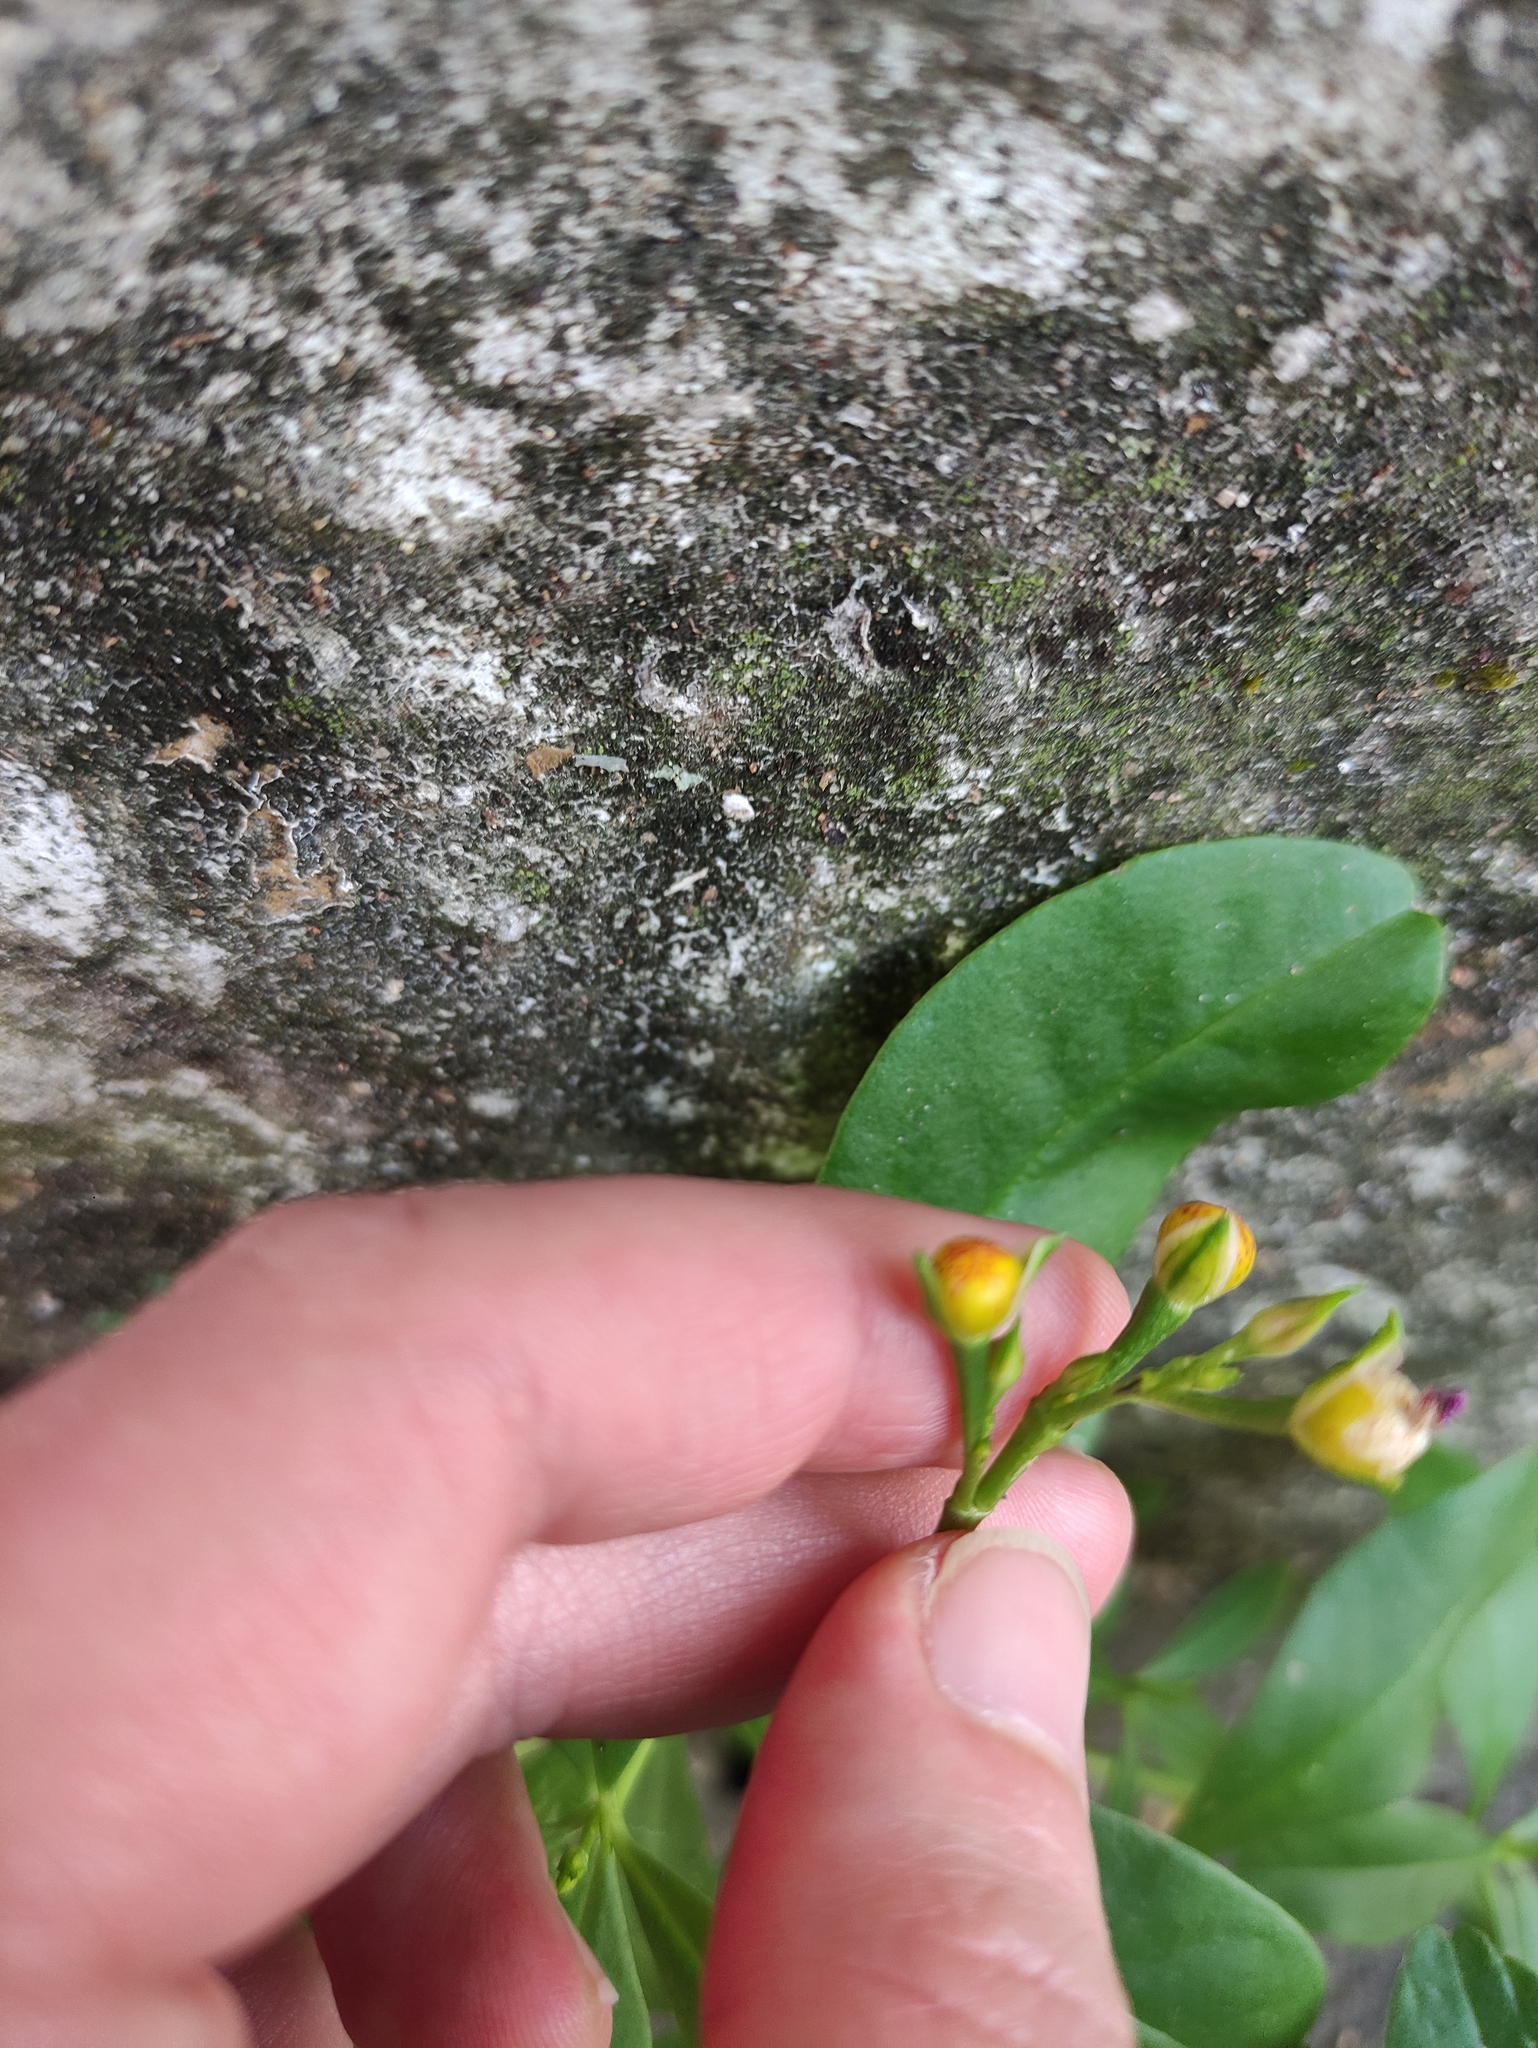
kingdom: Plantae
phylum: Tracheophyta
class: Magnoliopsida
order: Caryophyllales
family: Talinaceae
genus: Talinum
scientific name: Talinum fruticosum
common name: Verdolaga-francesa
